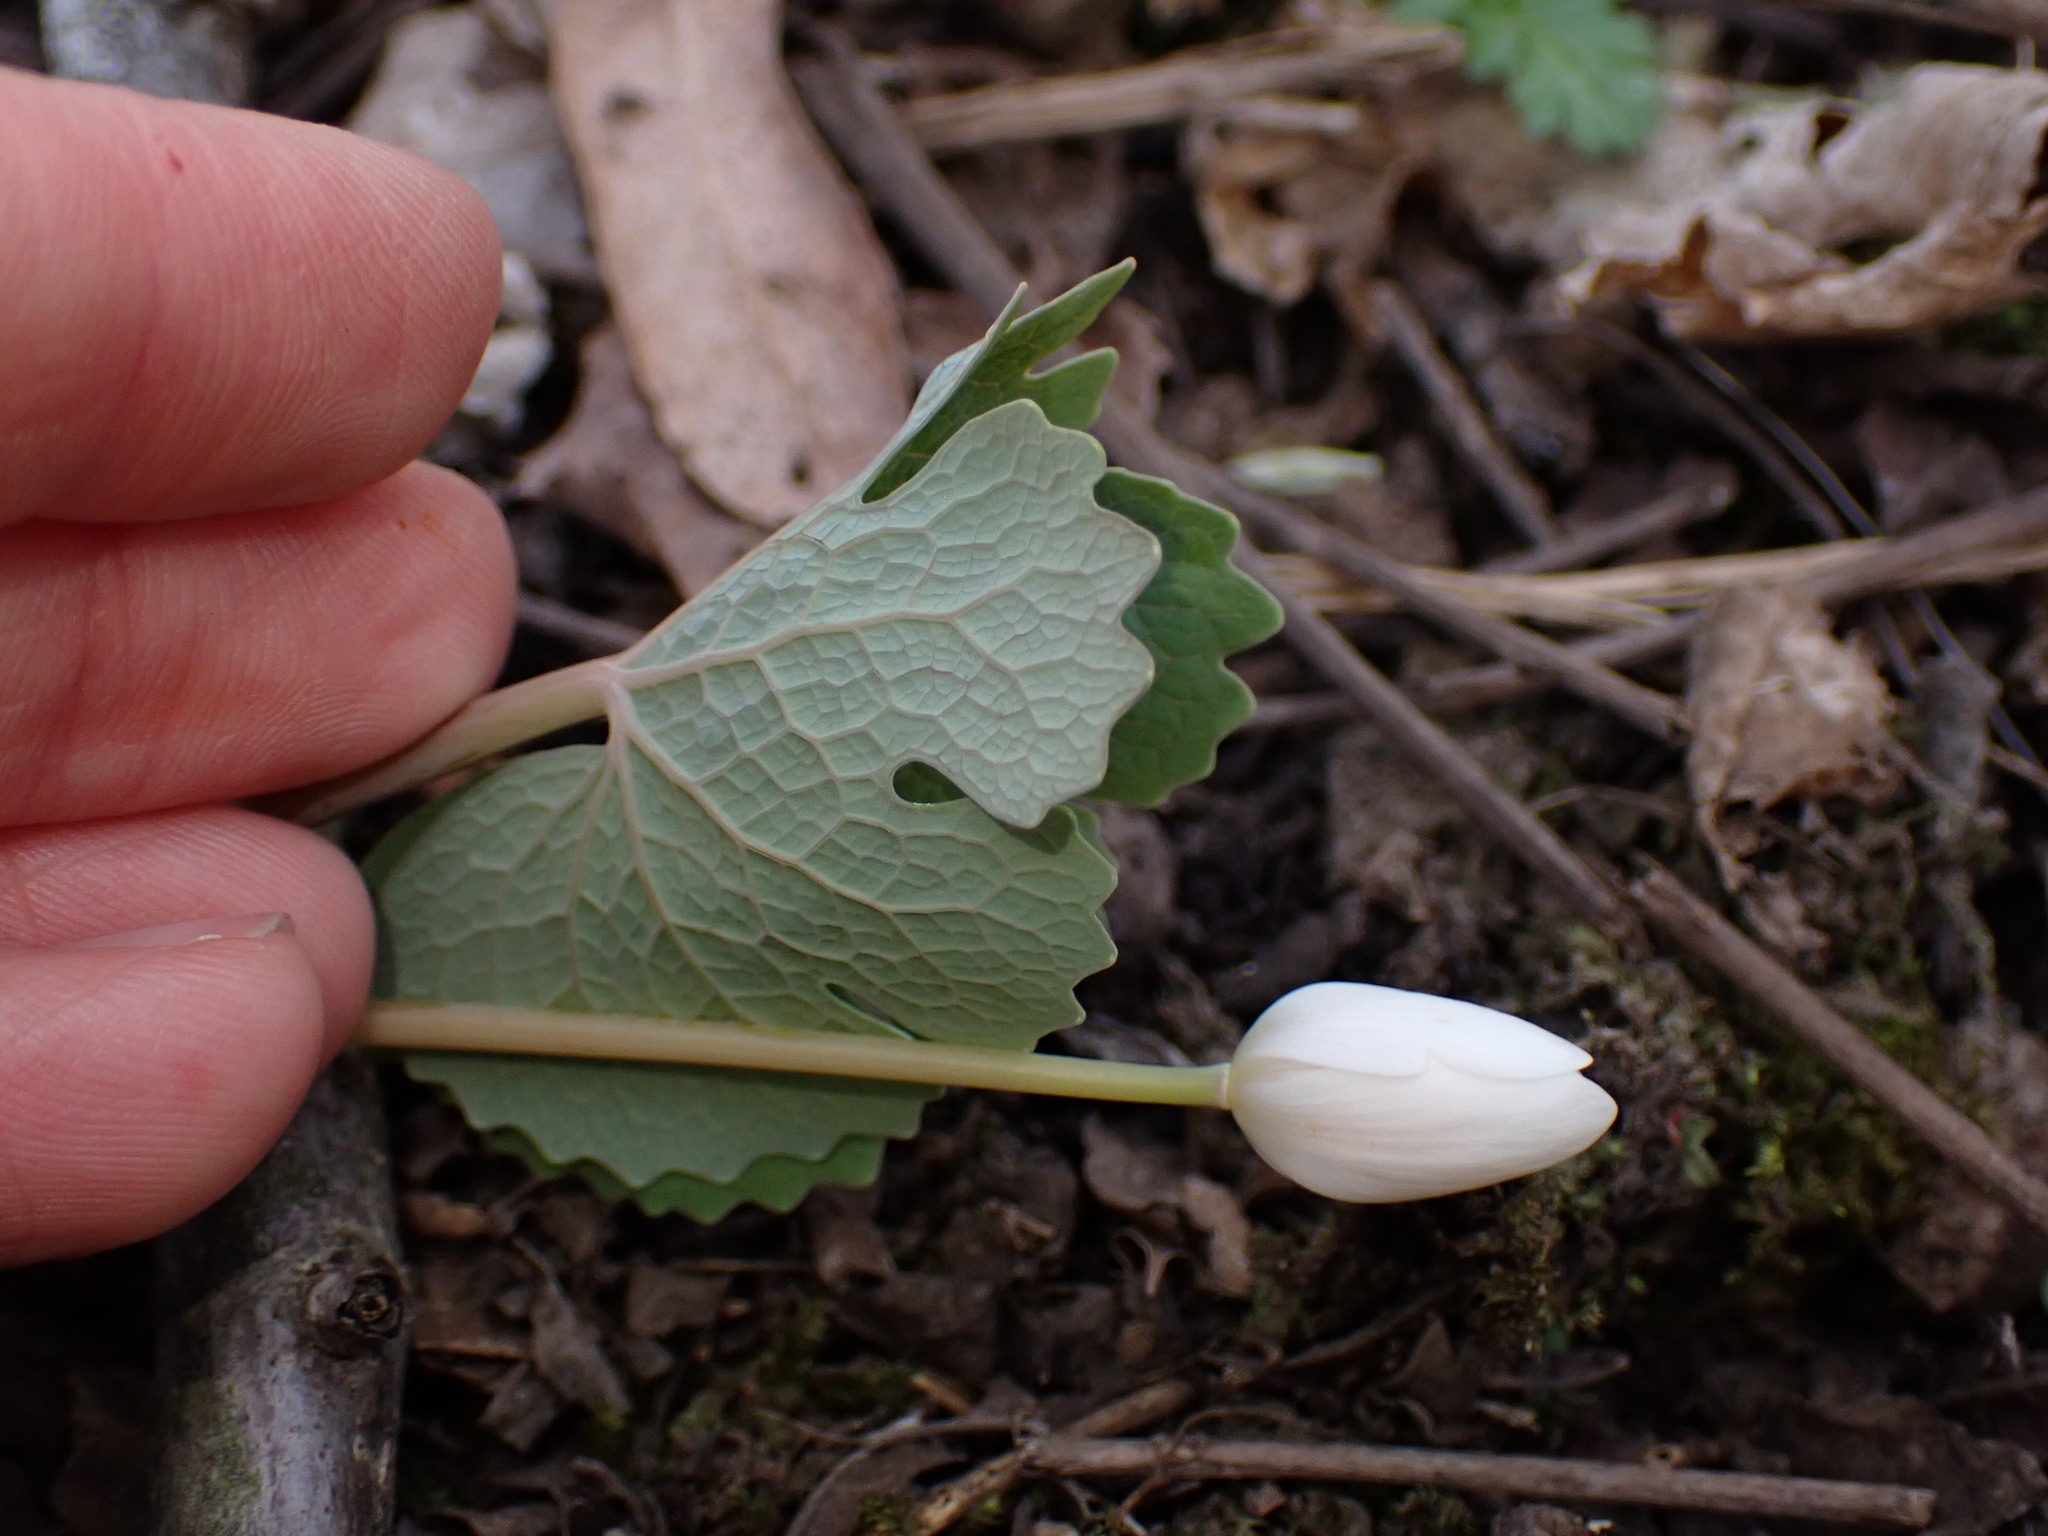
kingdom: Plantae
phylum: Tracheophyta
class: Magnoliopsida
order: Ranunculales
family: Papaveraceae
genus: Sanguinaria
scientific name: Sanguinaria canadensis
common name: Bloodroot
